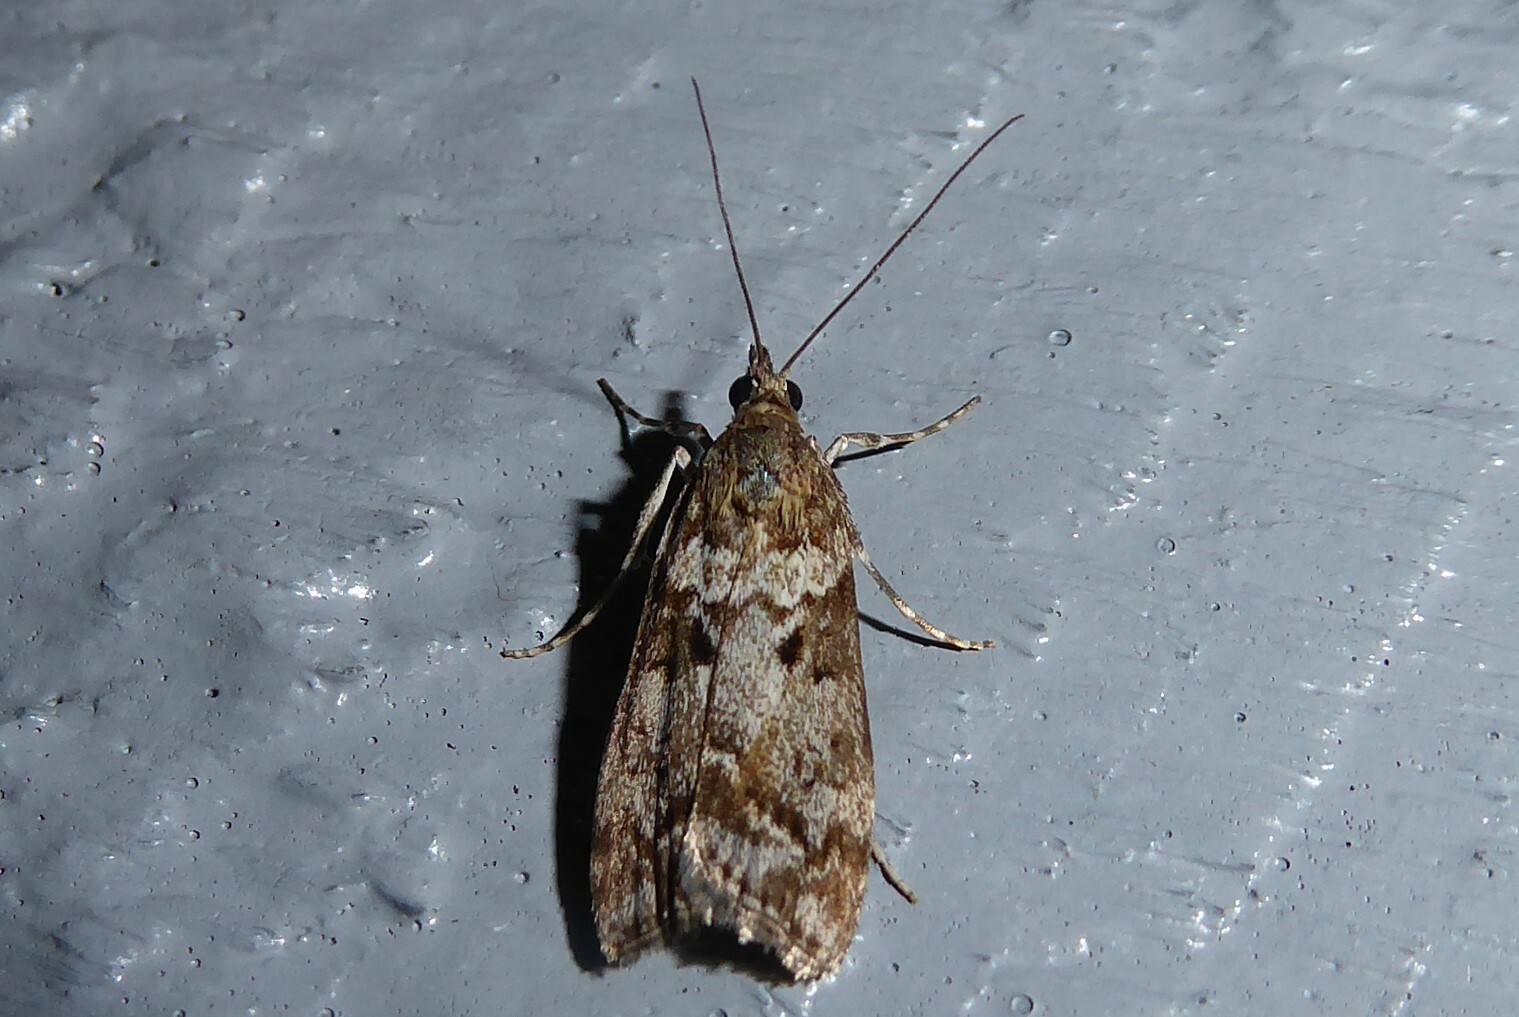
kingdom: Animalia
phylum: Arthropoda
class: Insecta
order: Lepidoptera
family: Crambidae
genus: Eudonia
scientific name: Eudonia submarginalis
